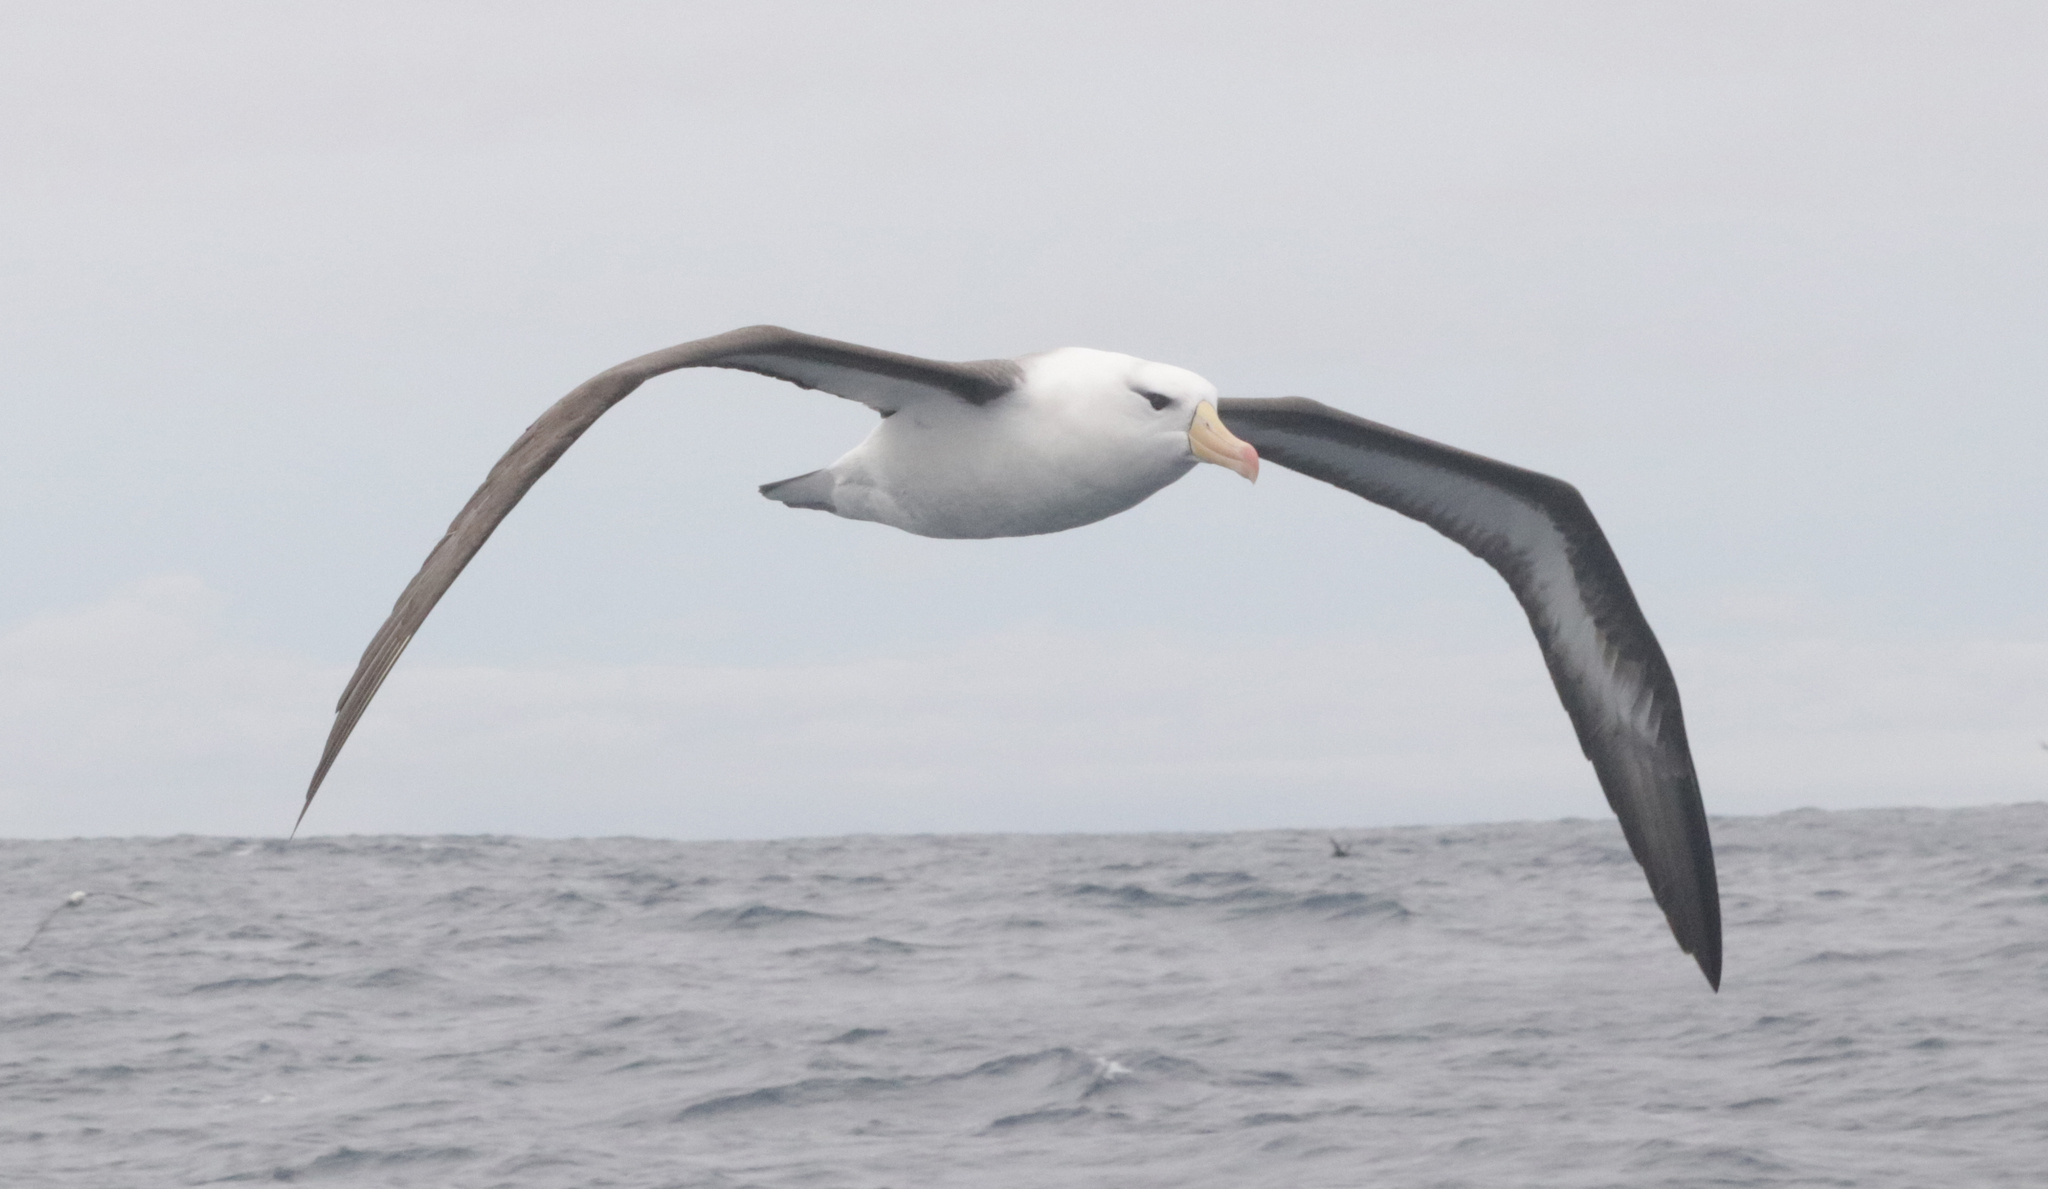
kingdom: Animalia
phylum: Chordata
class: Aves
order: Procellariiformes
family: Diomedeidae
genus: Thalassarche
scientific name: Thalassarche melanophris
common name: Black-browed albatross
